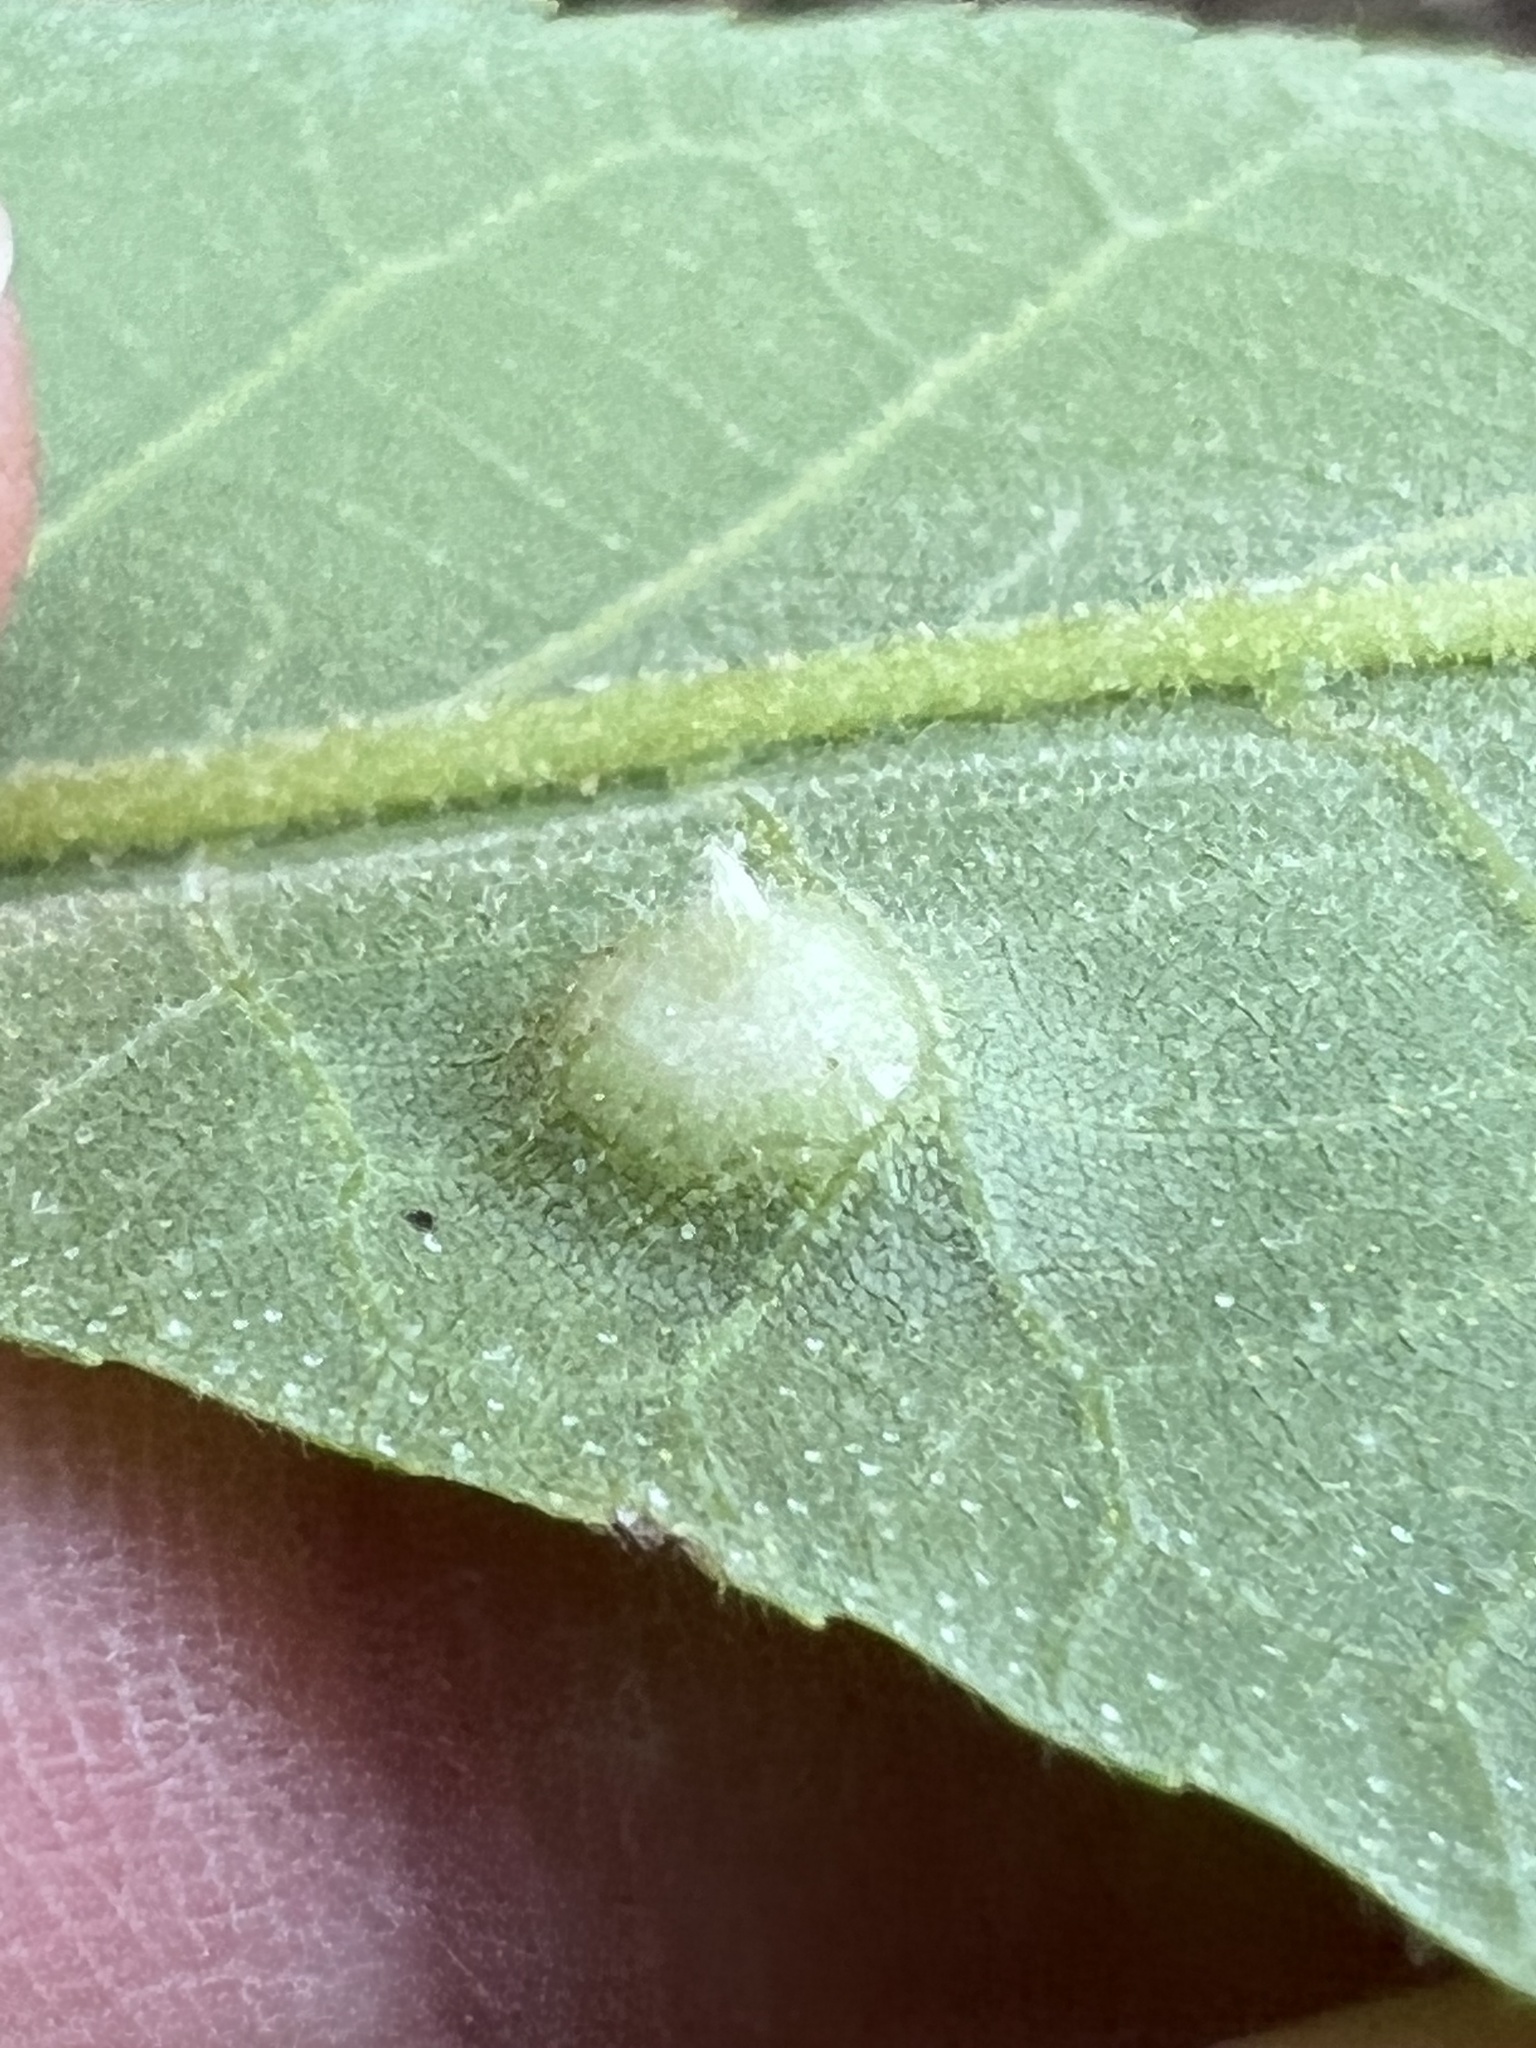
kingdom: Animalia
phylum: Arthropoda
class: Insecta
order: Hemiptera
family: Phylloxeridae
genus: Phylloxera
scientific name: Phylloxera symmetrica
